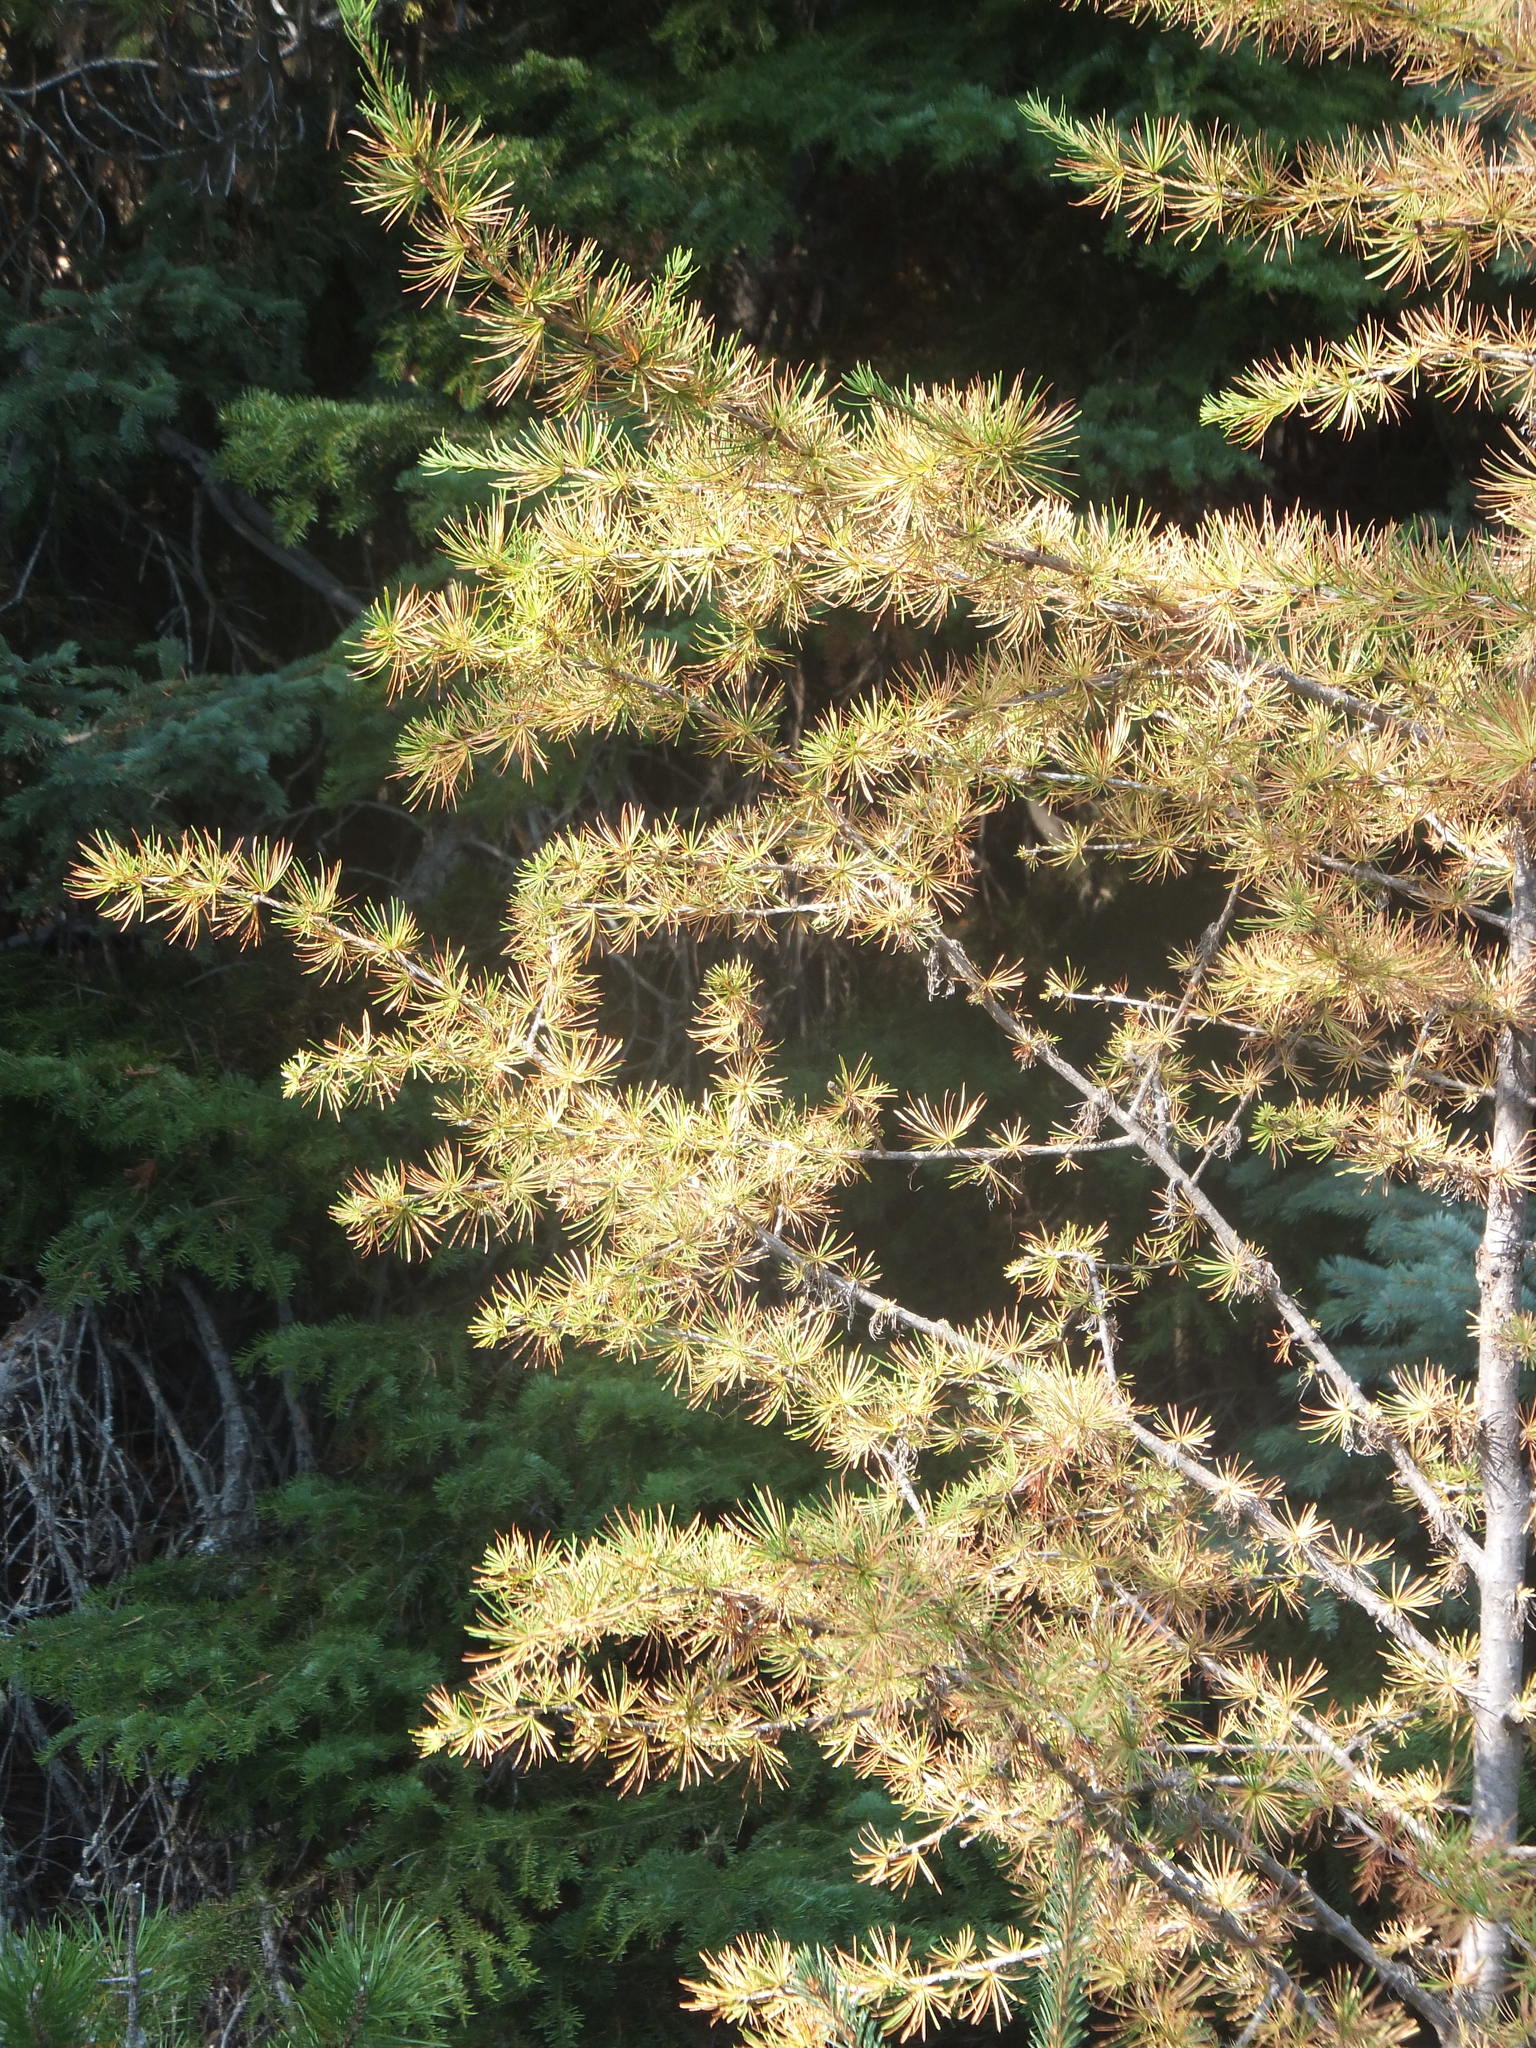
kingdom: Plantae
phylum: Tracheophyta
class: Pinopsida
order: Pinales
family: Pinaceae
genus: Larix
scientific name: Larix occidentalis
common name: Western larch
